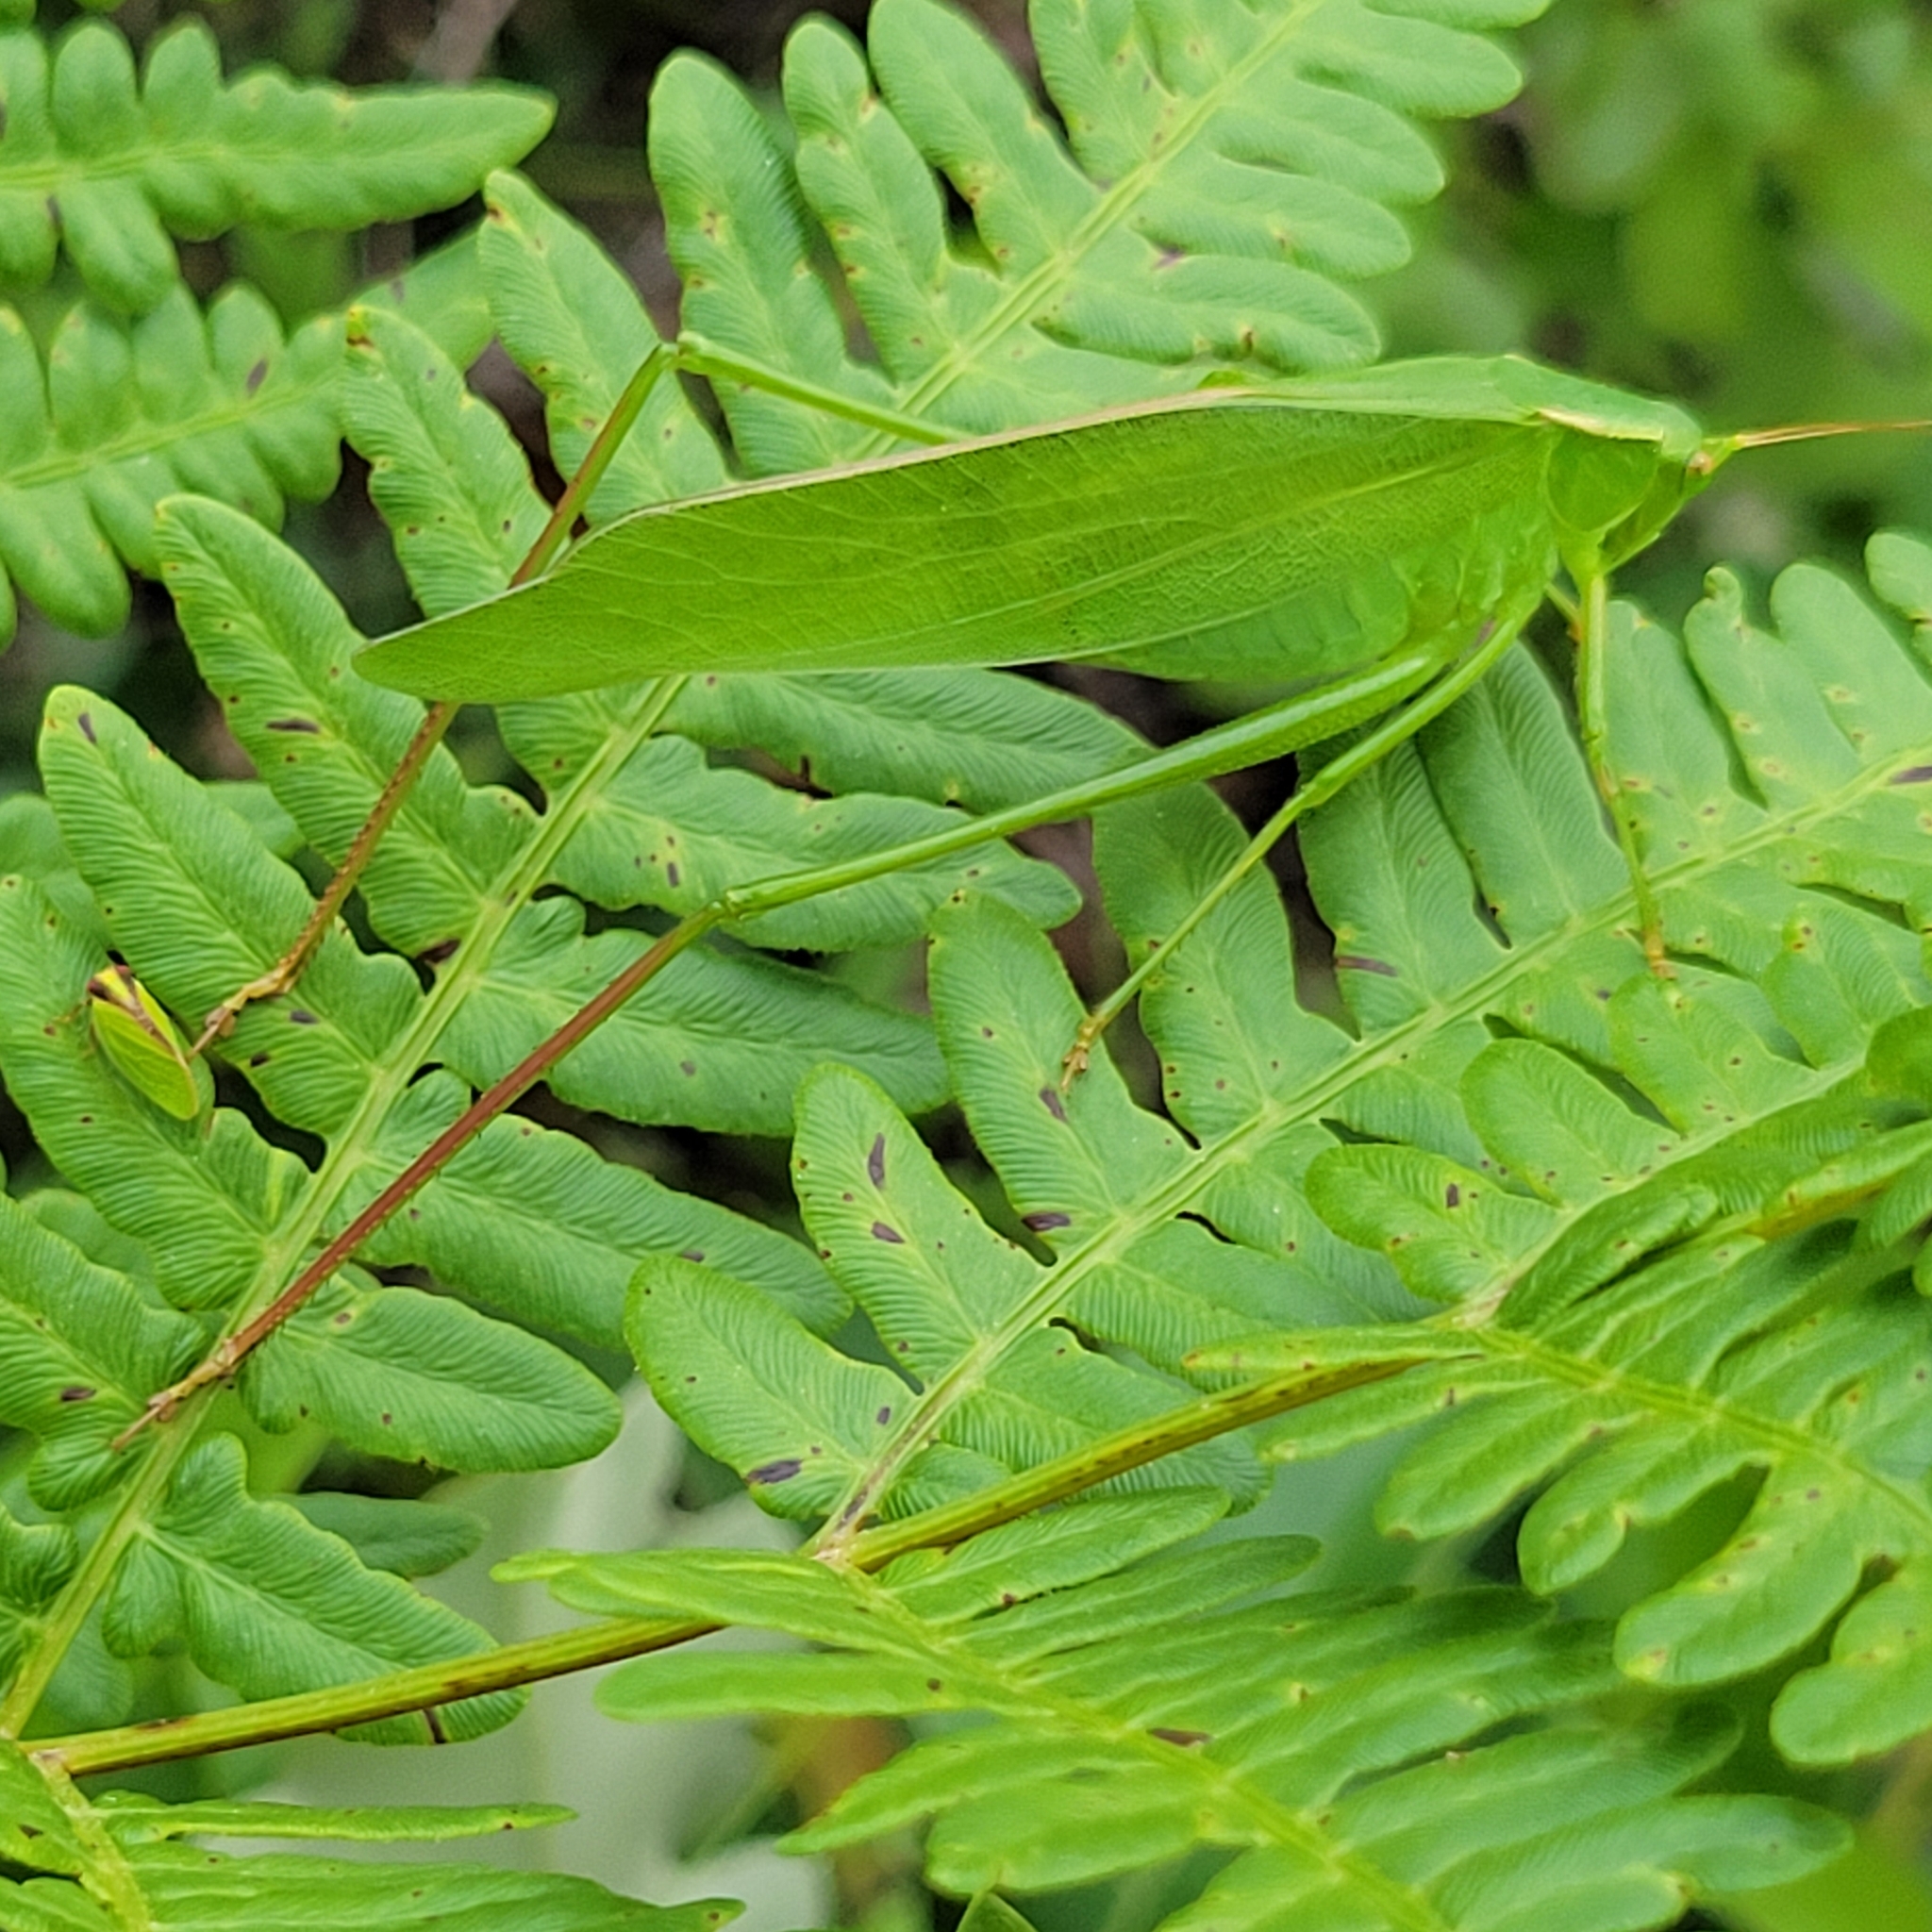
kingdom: Animalia
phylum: Arthropoda
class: Insecta
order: Orthoptera
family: Tettigoniidae
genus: Scudderia
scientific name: Scudderia curvicauda
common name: Curve-tailed bush katydid
